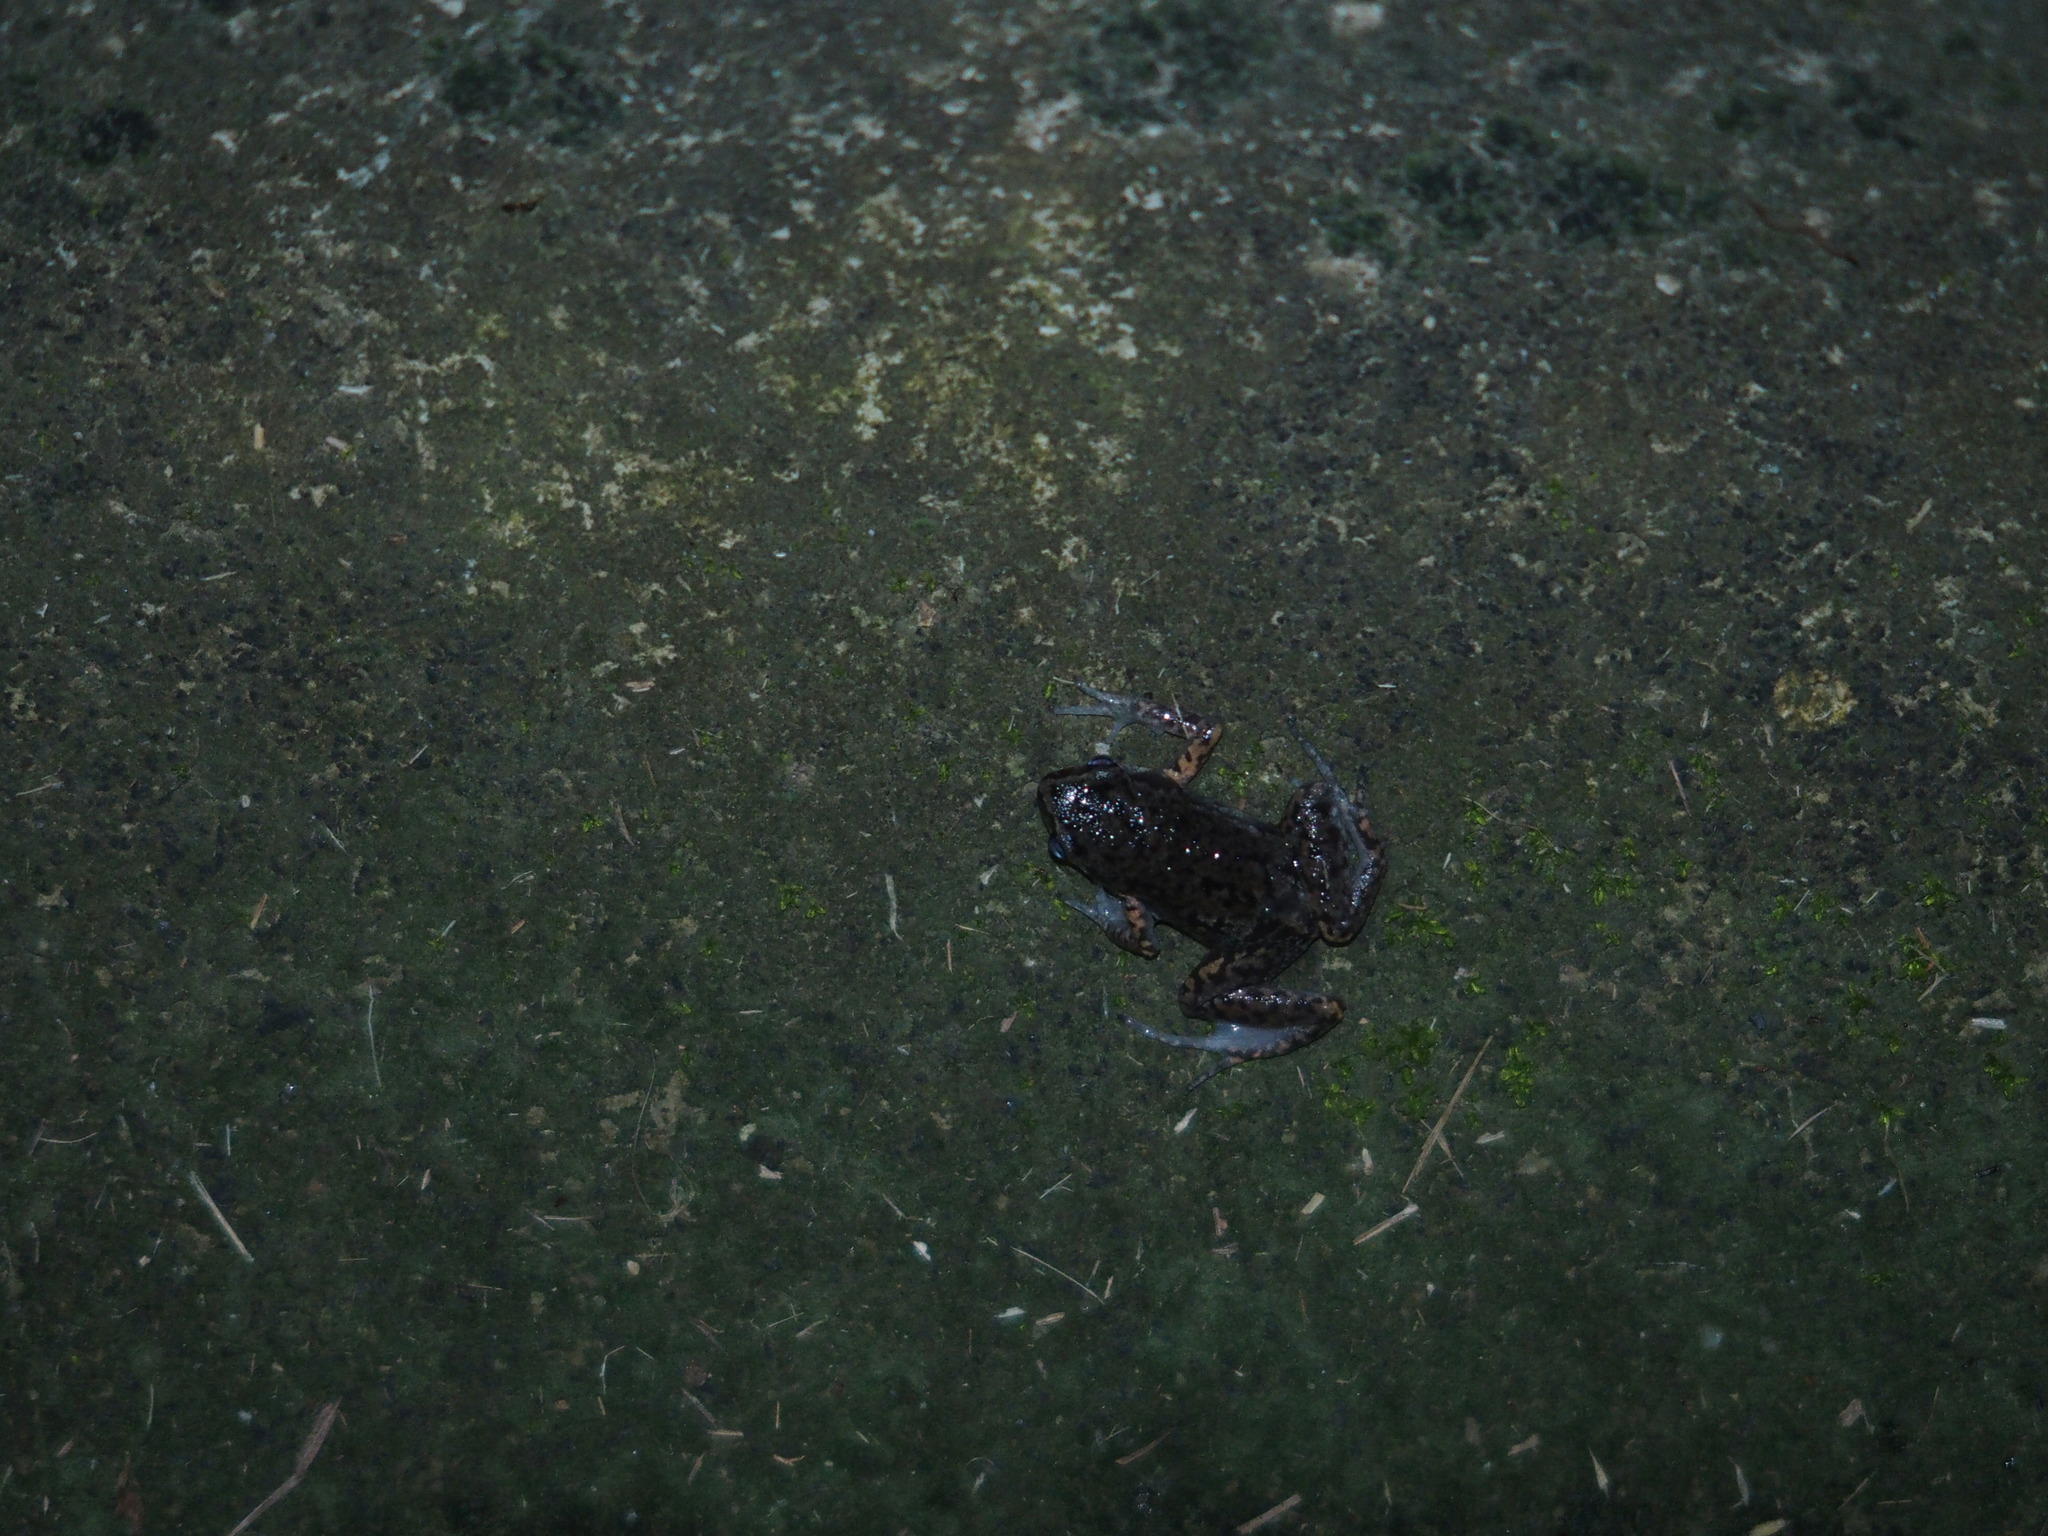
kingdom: Animalia
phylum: Chordata
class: Amphibia
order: Anura
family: Microhylidae
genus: Micryletta
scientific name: Micryletta steinegeri
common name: Stejneger's paddy frog
